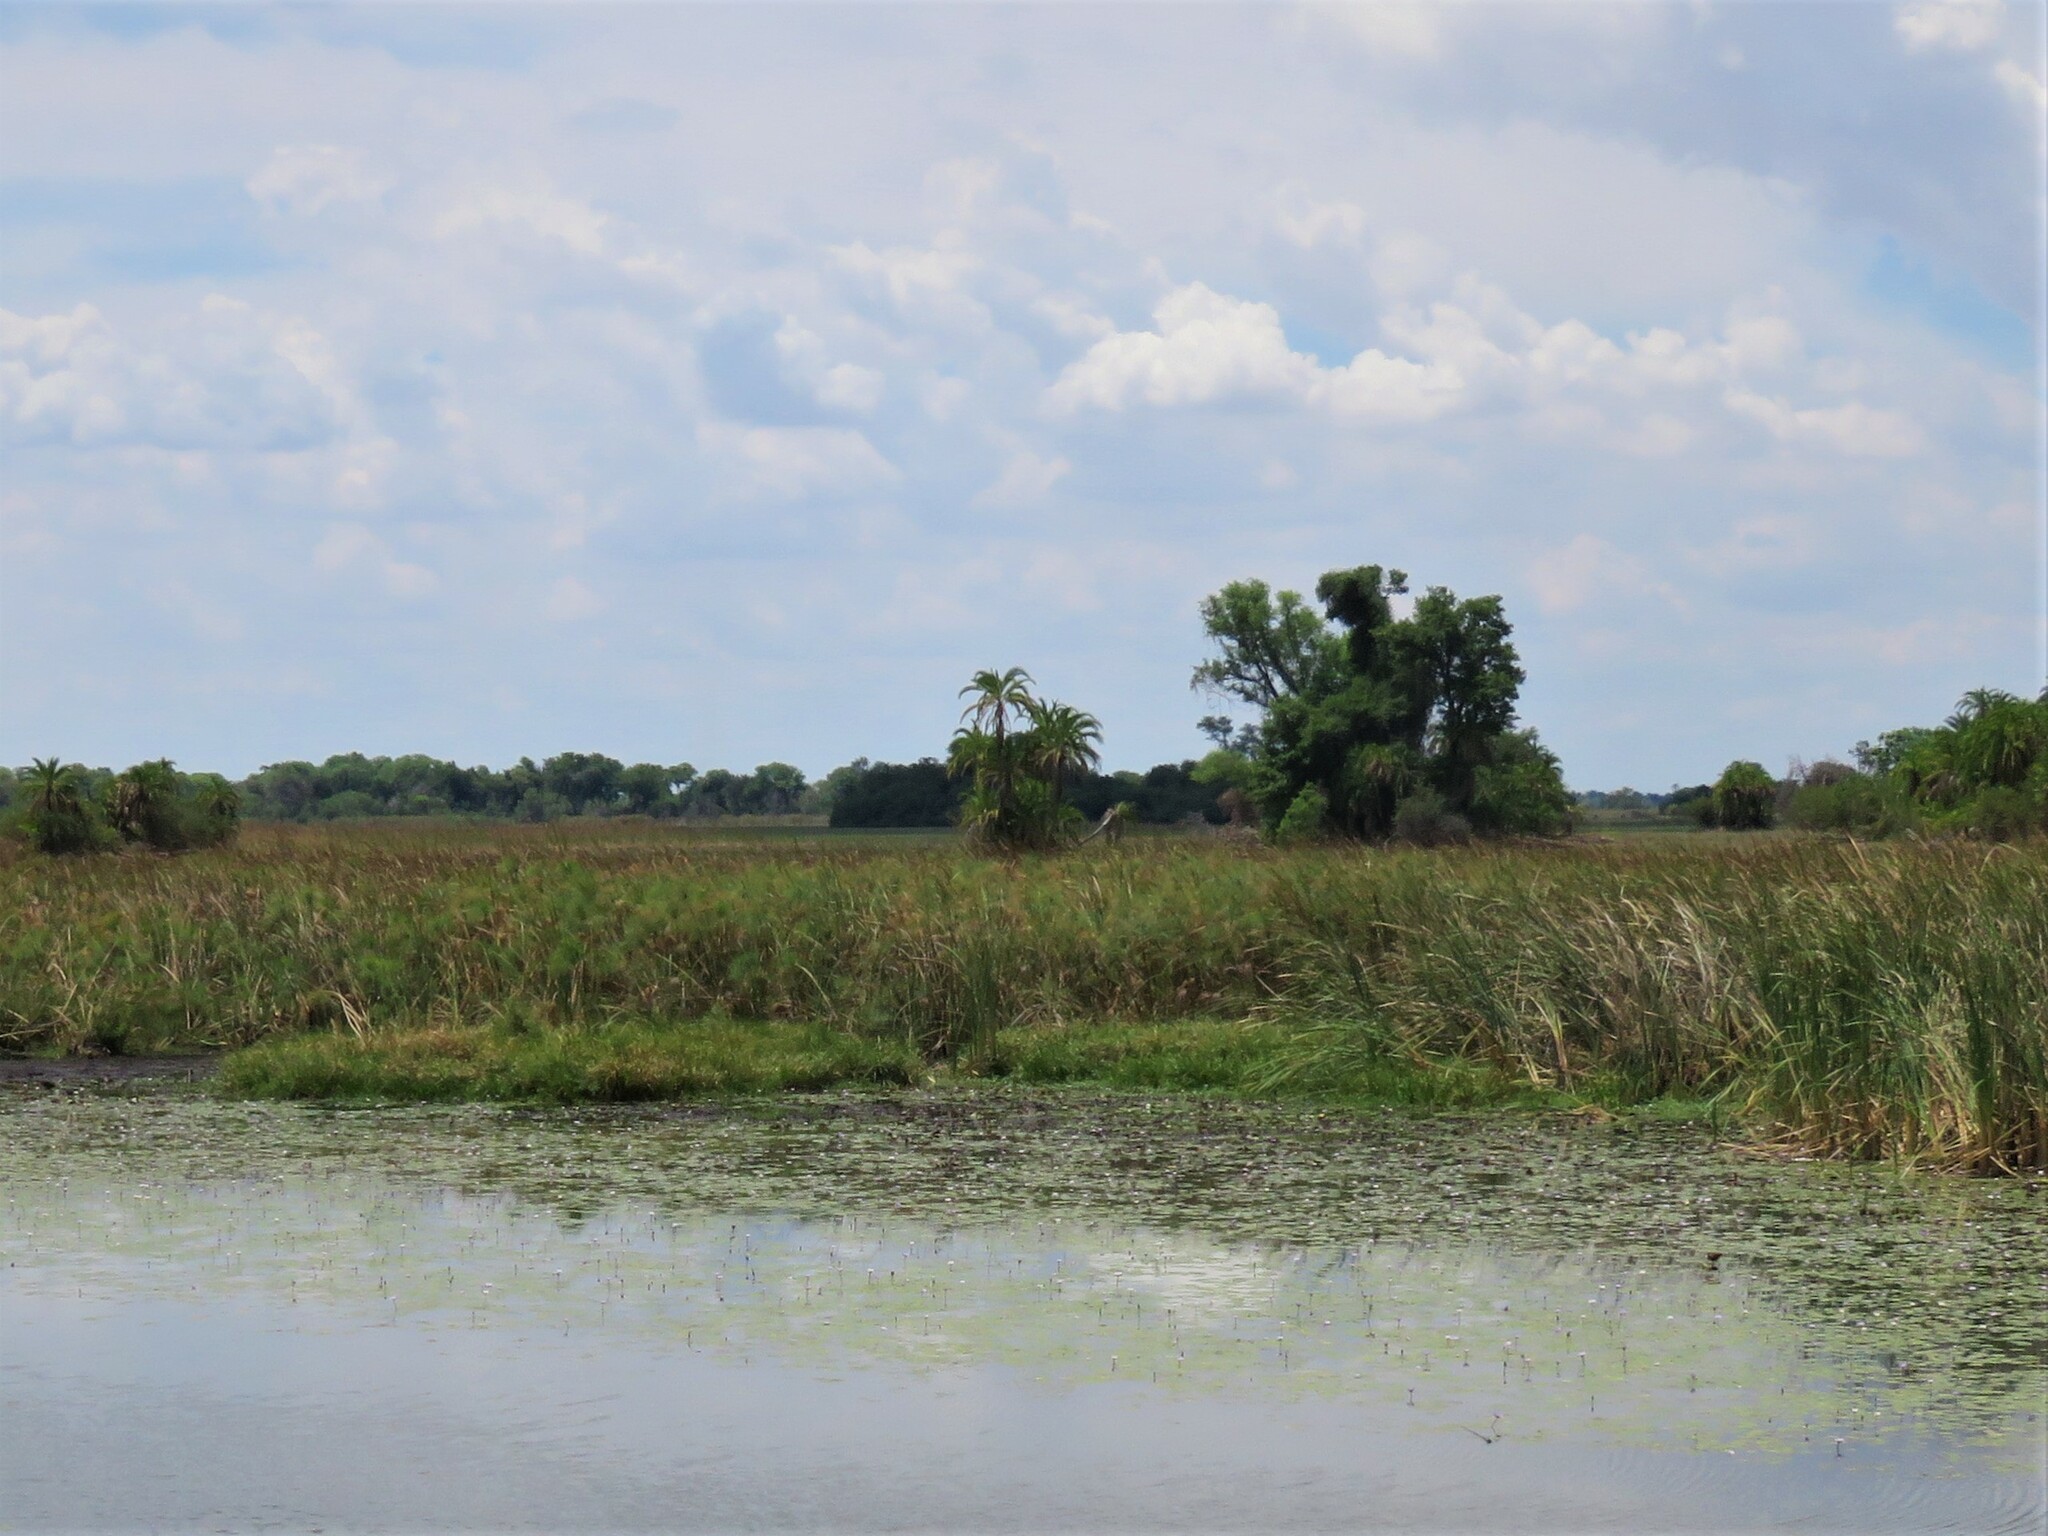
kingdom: Plantae
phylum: Tracheophyta
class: Liliopsida
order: Arecales
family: Arecaceae
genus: Phoenix
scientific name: Phoenix reclinata
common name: Senegal date palm
